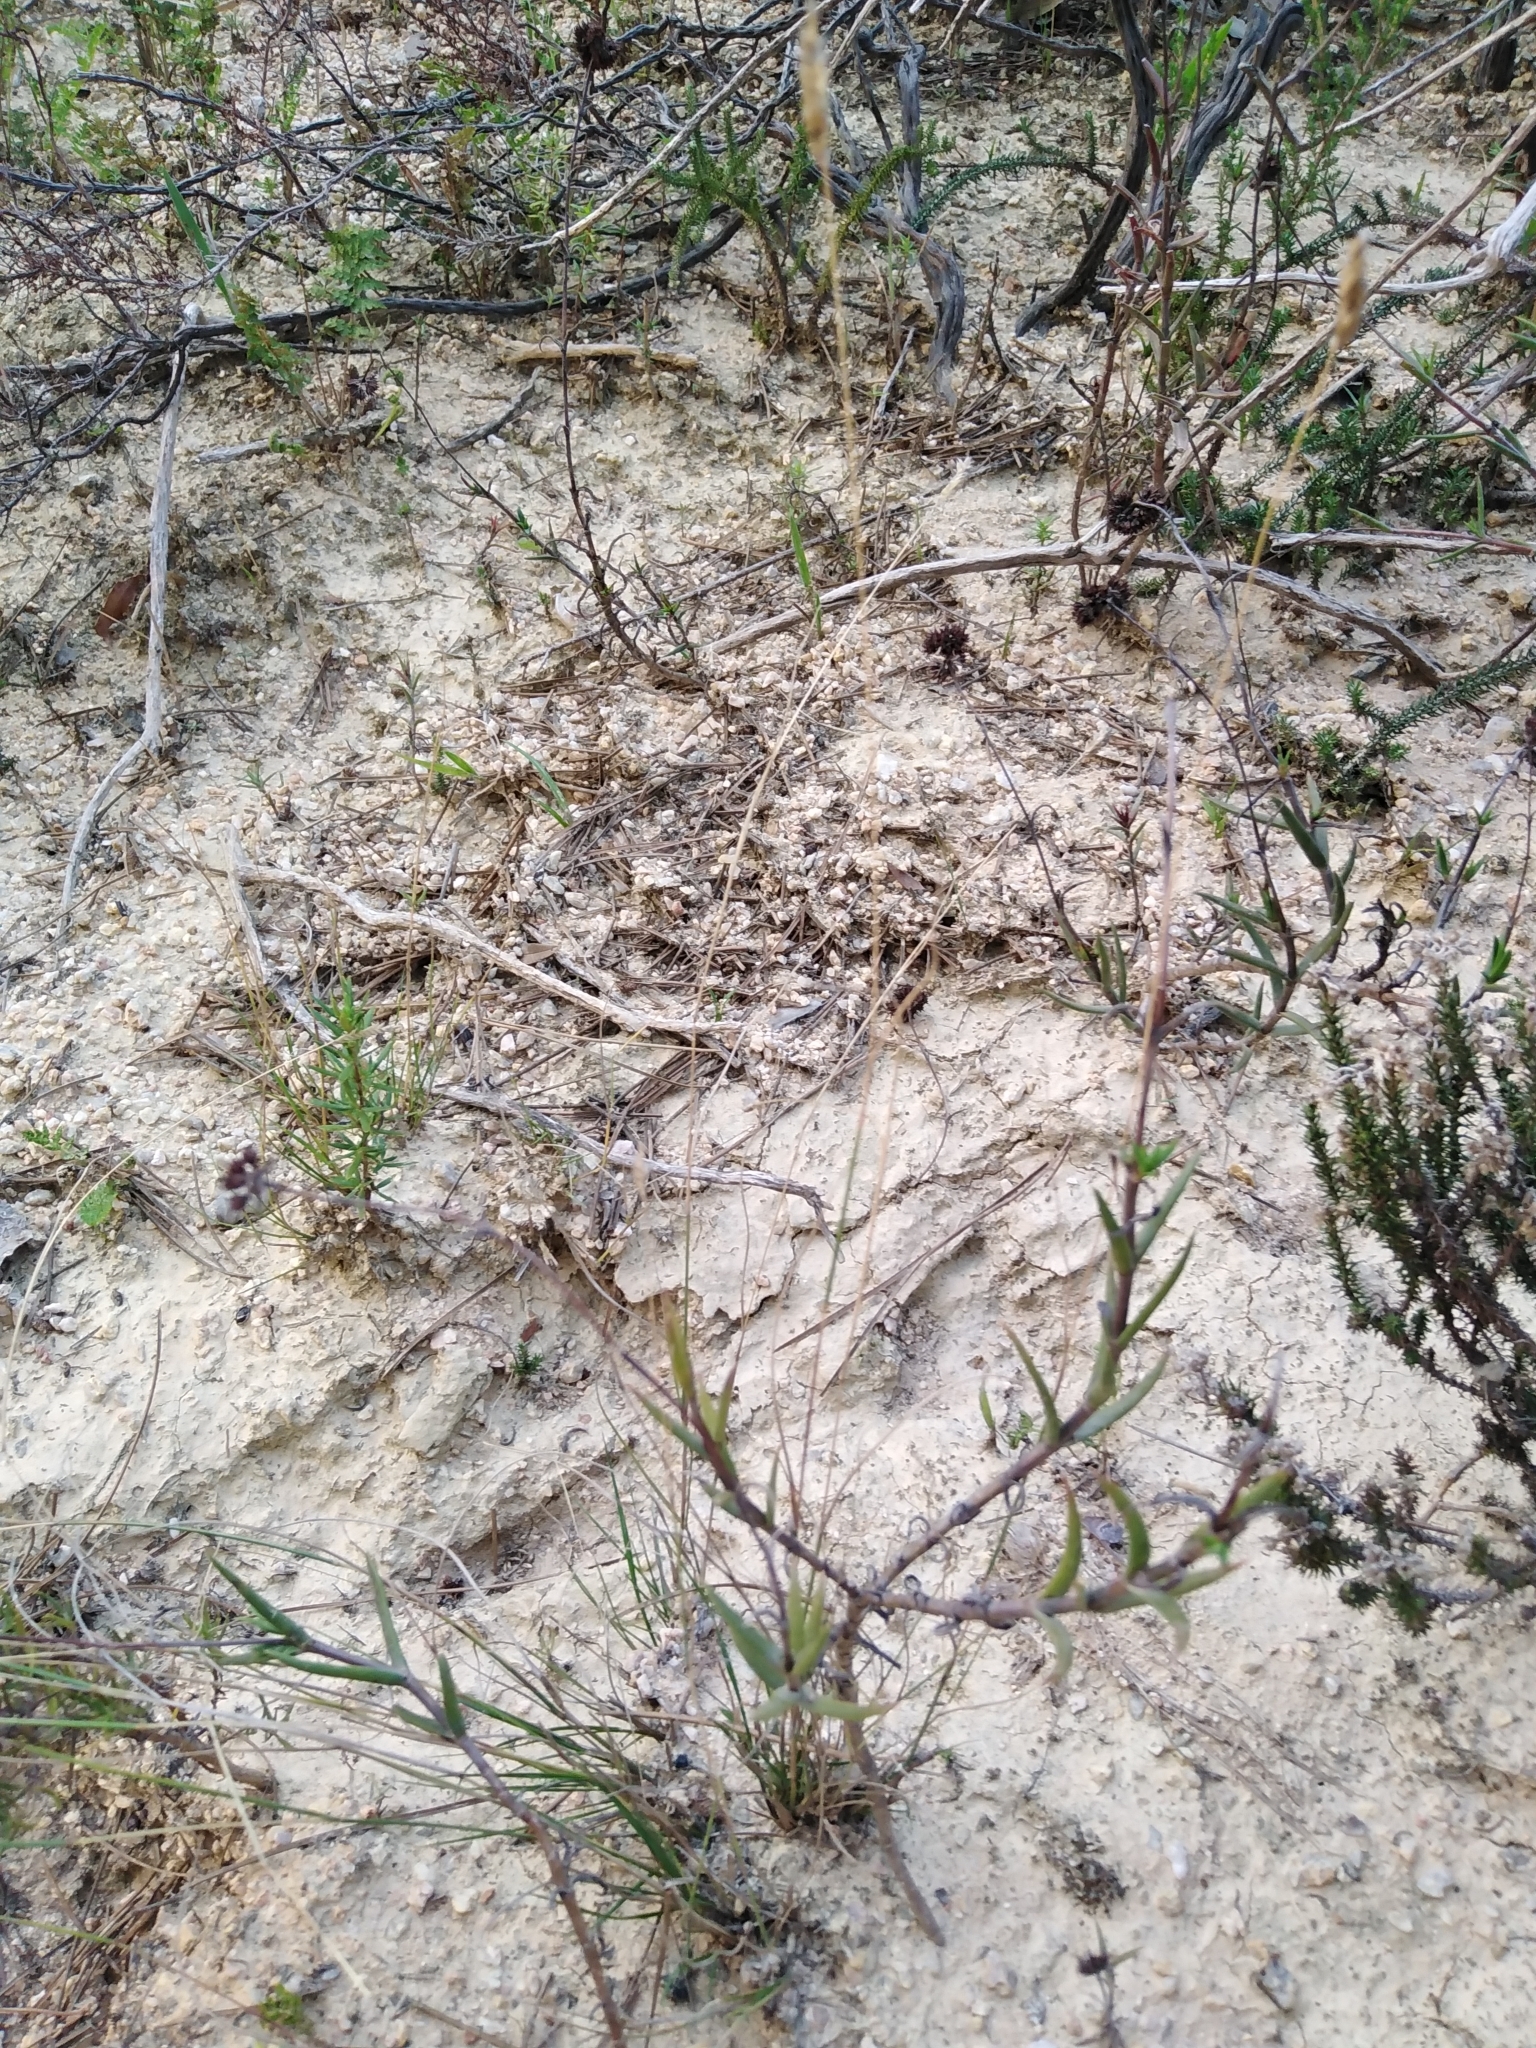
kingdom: Plantae
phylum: Tracheophyta
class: Magnoliopsida
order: Saxifragales
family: Crassulaceae
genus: Crassula
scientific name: Crassula subulata
